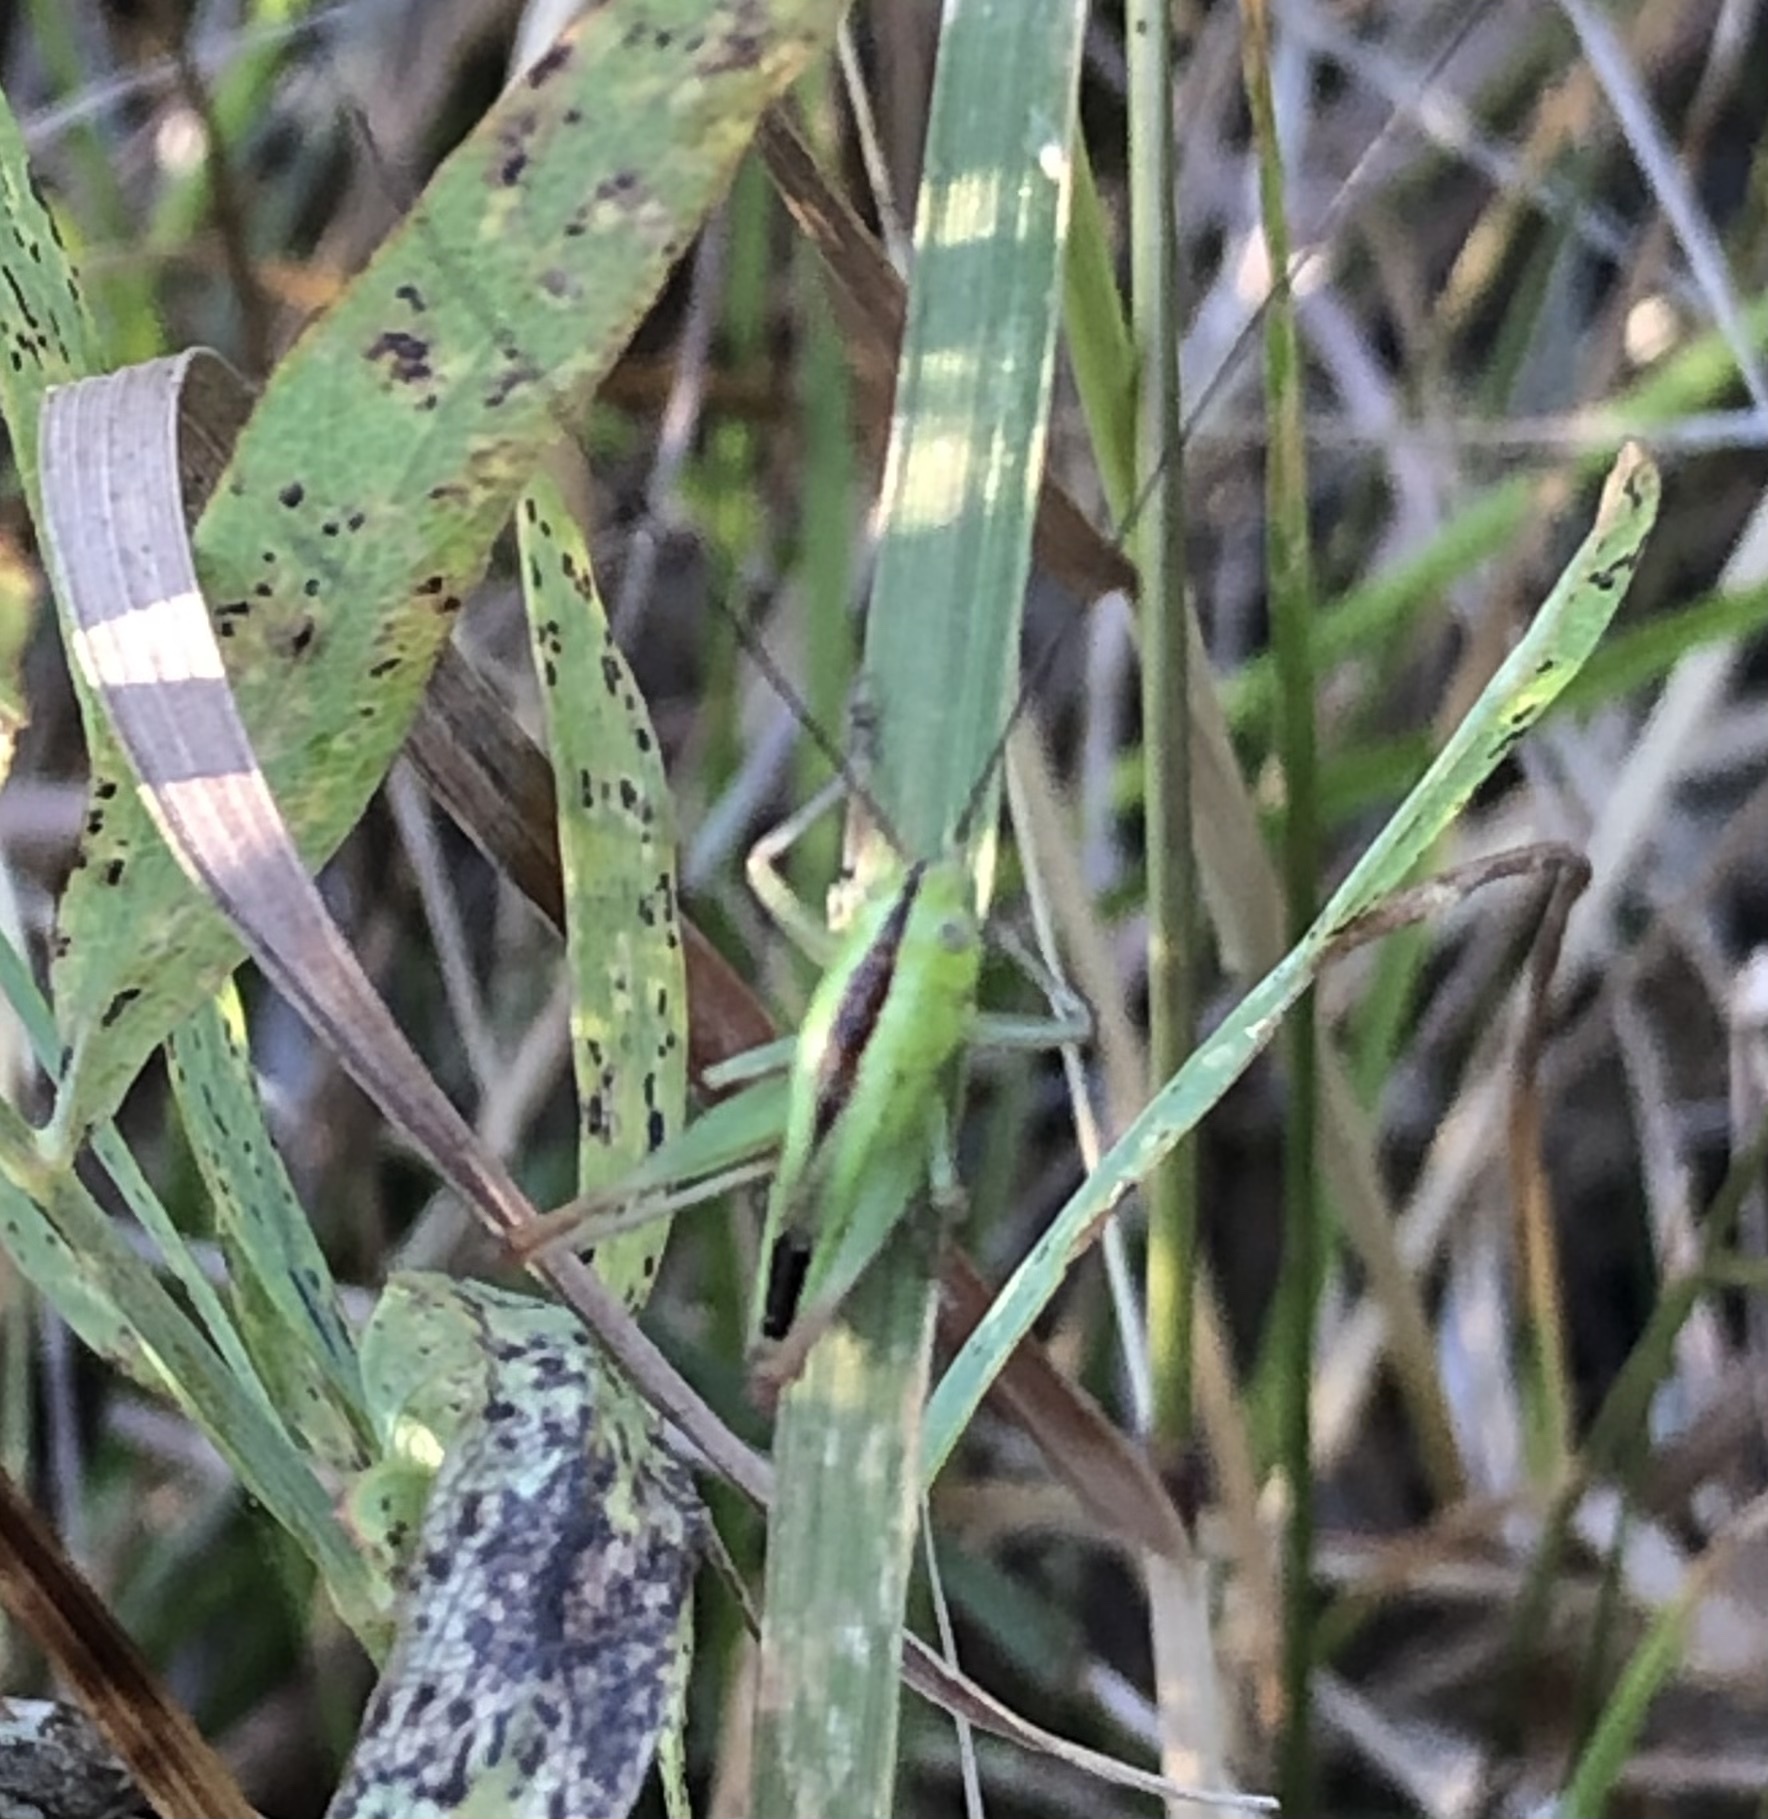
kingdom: Animalia
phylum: Arthropoda
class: Insecta
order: Orthoptera
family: Tettigoniidae
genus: Conocephalus
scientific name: Conocephalus fasciatus
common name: Slender meadow katydid
